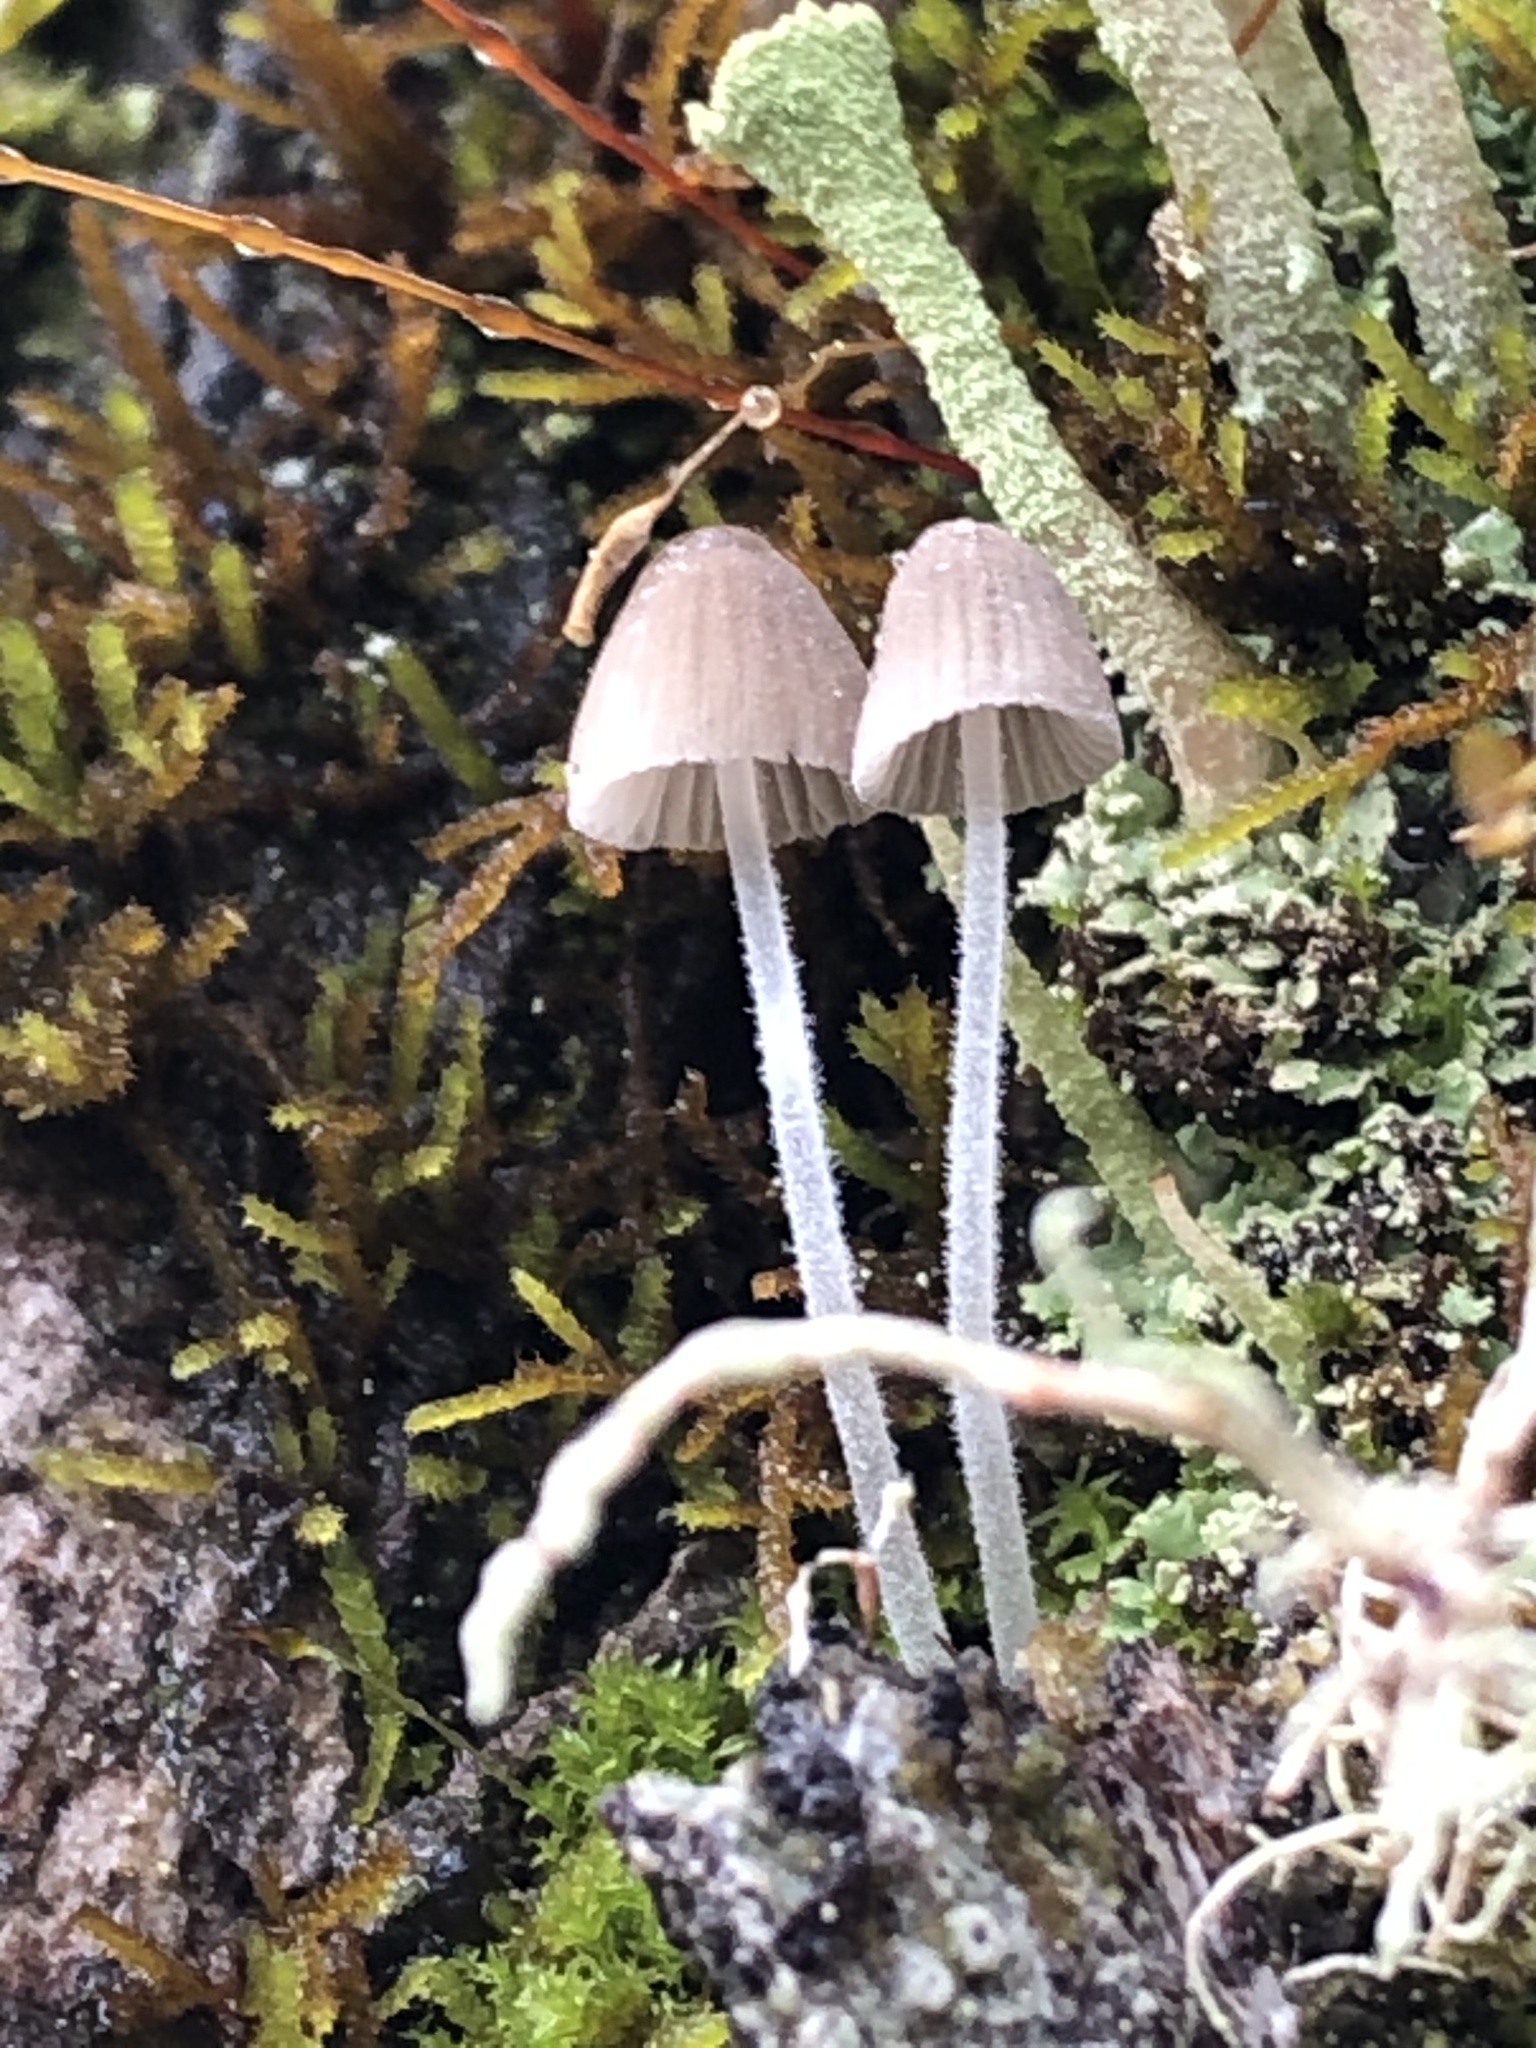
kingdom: Fungi
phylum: Basidiomycota
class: Agaricomycetes
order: Agaricales
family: Psathyrellaceae
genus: Coprinellus
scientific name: Coprinellus disseminatus
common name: Fairies' bonnets
